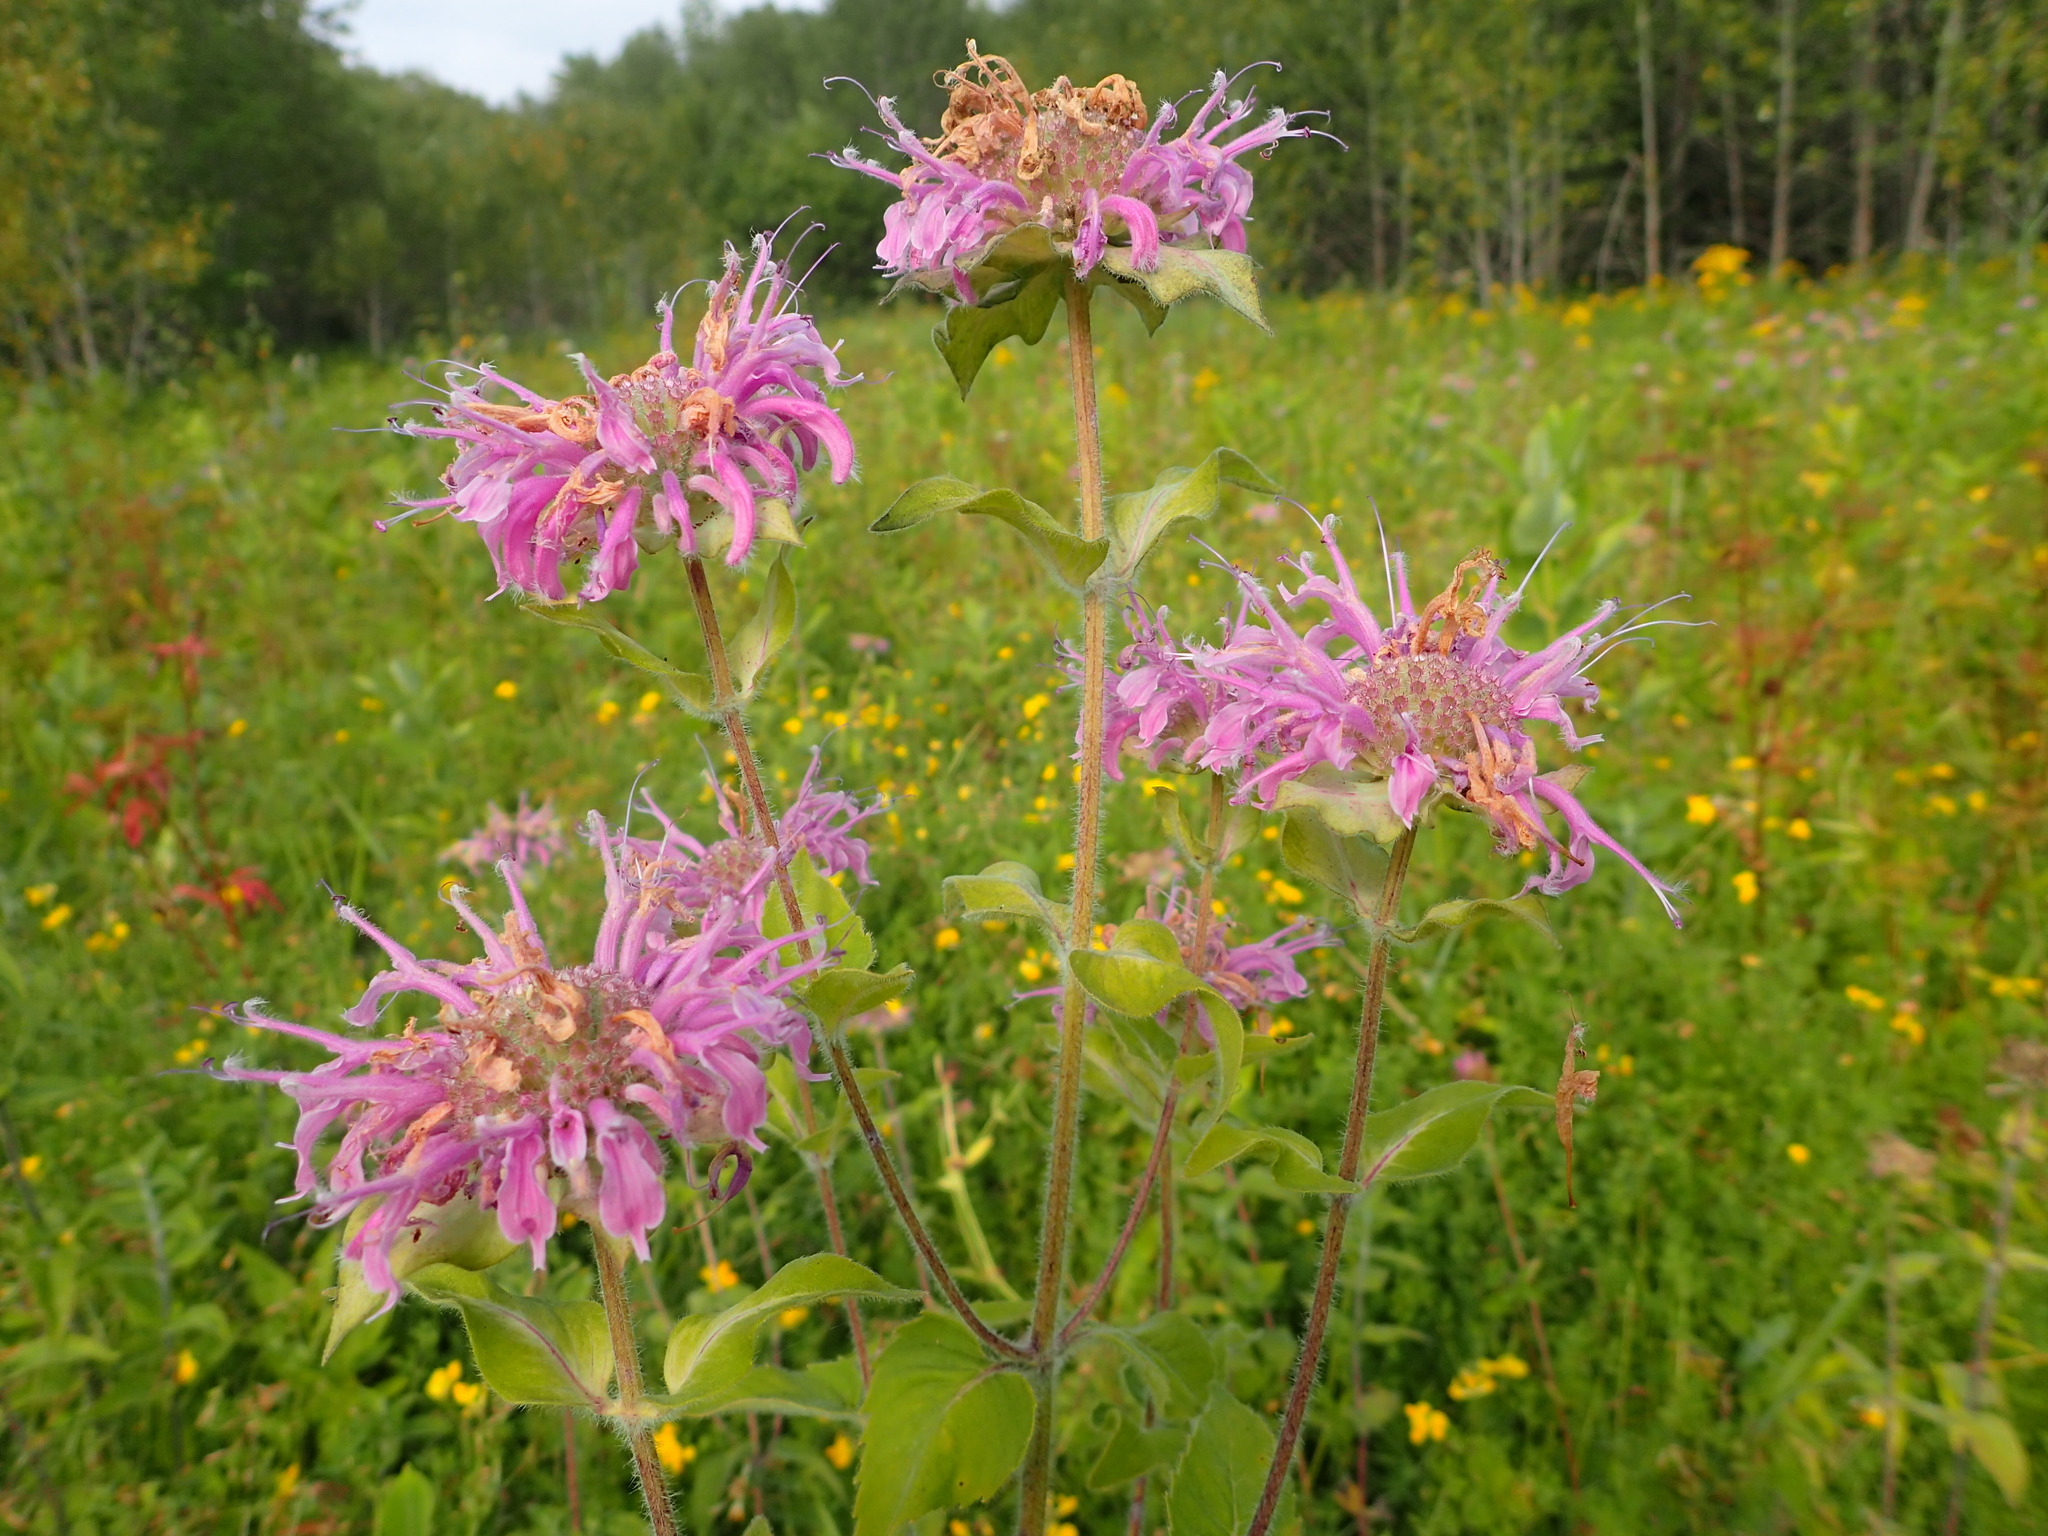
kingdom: Plantae
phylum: Tracheophyta
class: Magnoliopsida
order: Lamiales
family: Lamiaceae
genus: Monarda
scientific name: Monarda fistulosa
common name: Purple beebalm
